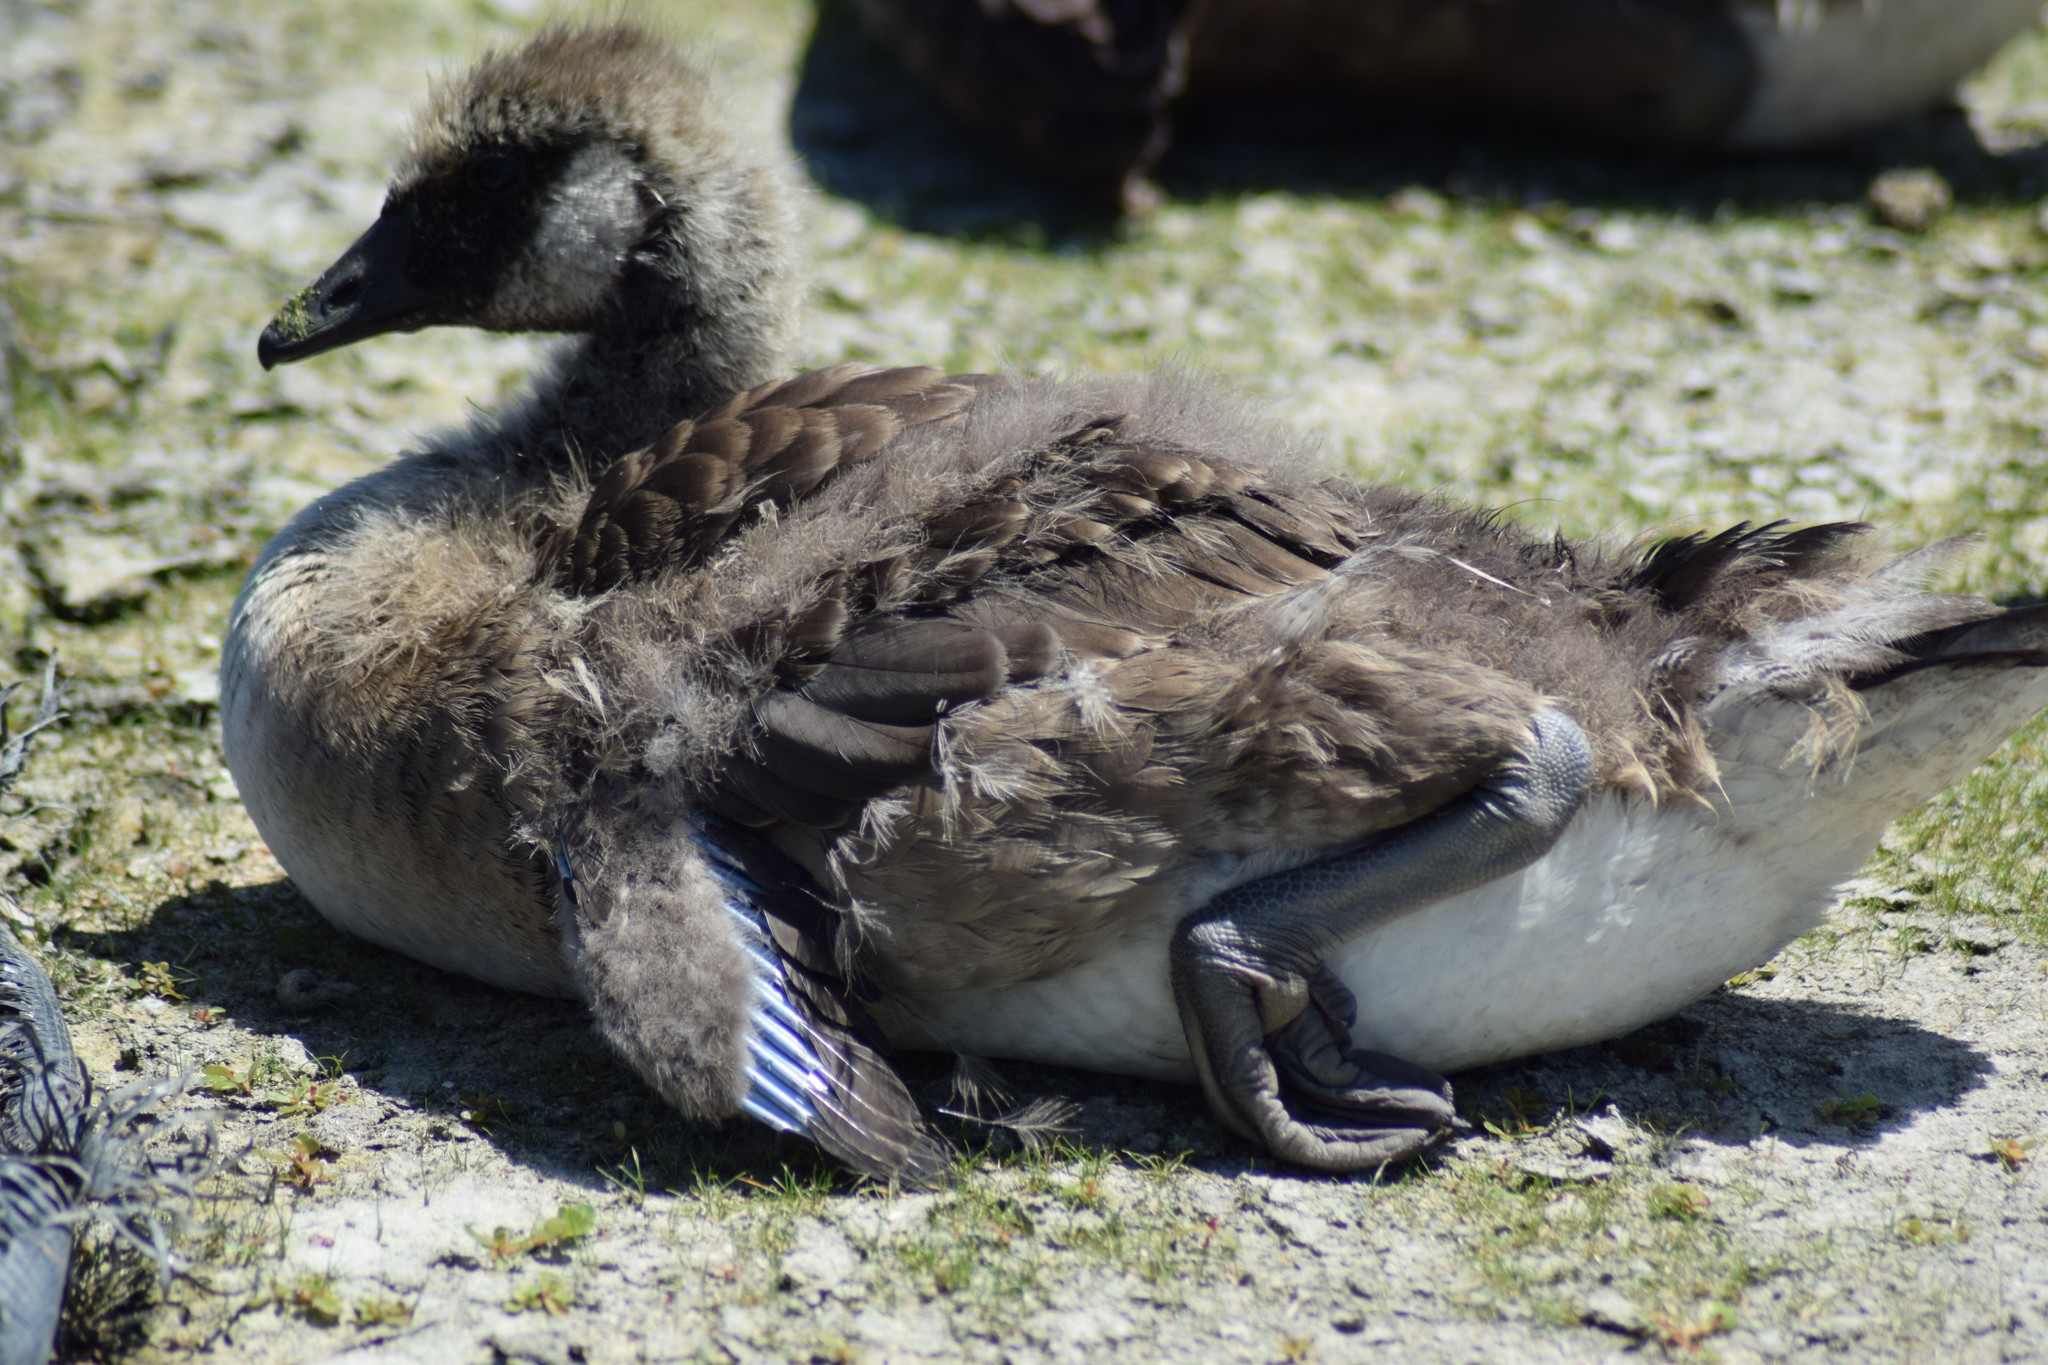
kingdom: Animalia
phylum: Chordata
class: Aves
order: Anseriformes
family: Anatidae
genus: Branta
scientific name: Branta canadensis
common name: Canada goose
